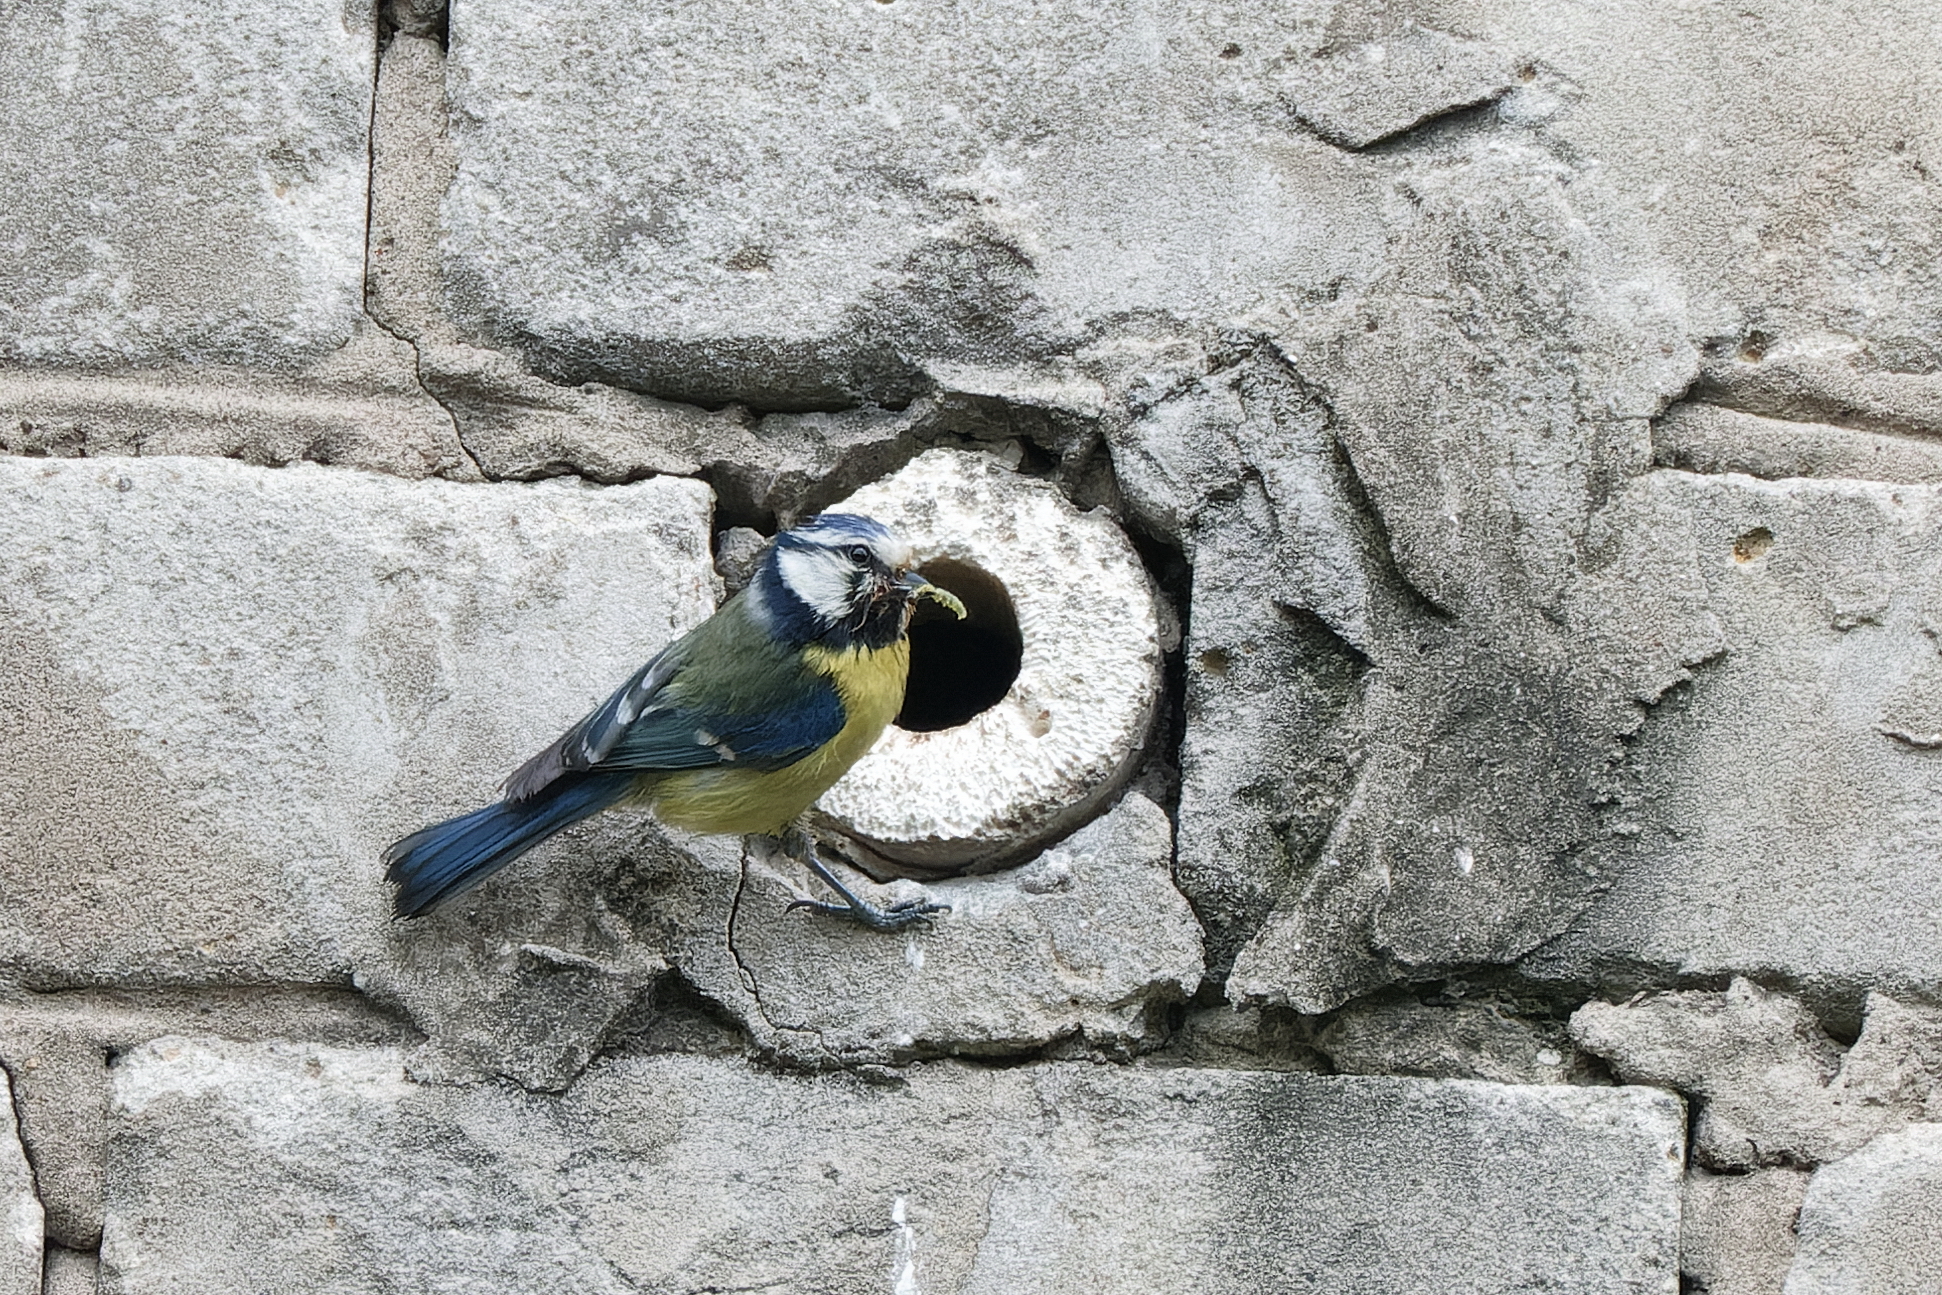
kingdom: Animalia
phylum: Chordata
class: Aves
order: Passeriformes
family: Paridae
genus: Cyanistes
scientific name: Cyanistes caeruleus
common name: Eurasian blue tit
